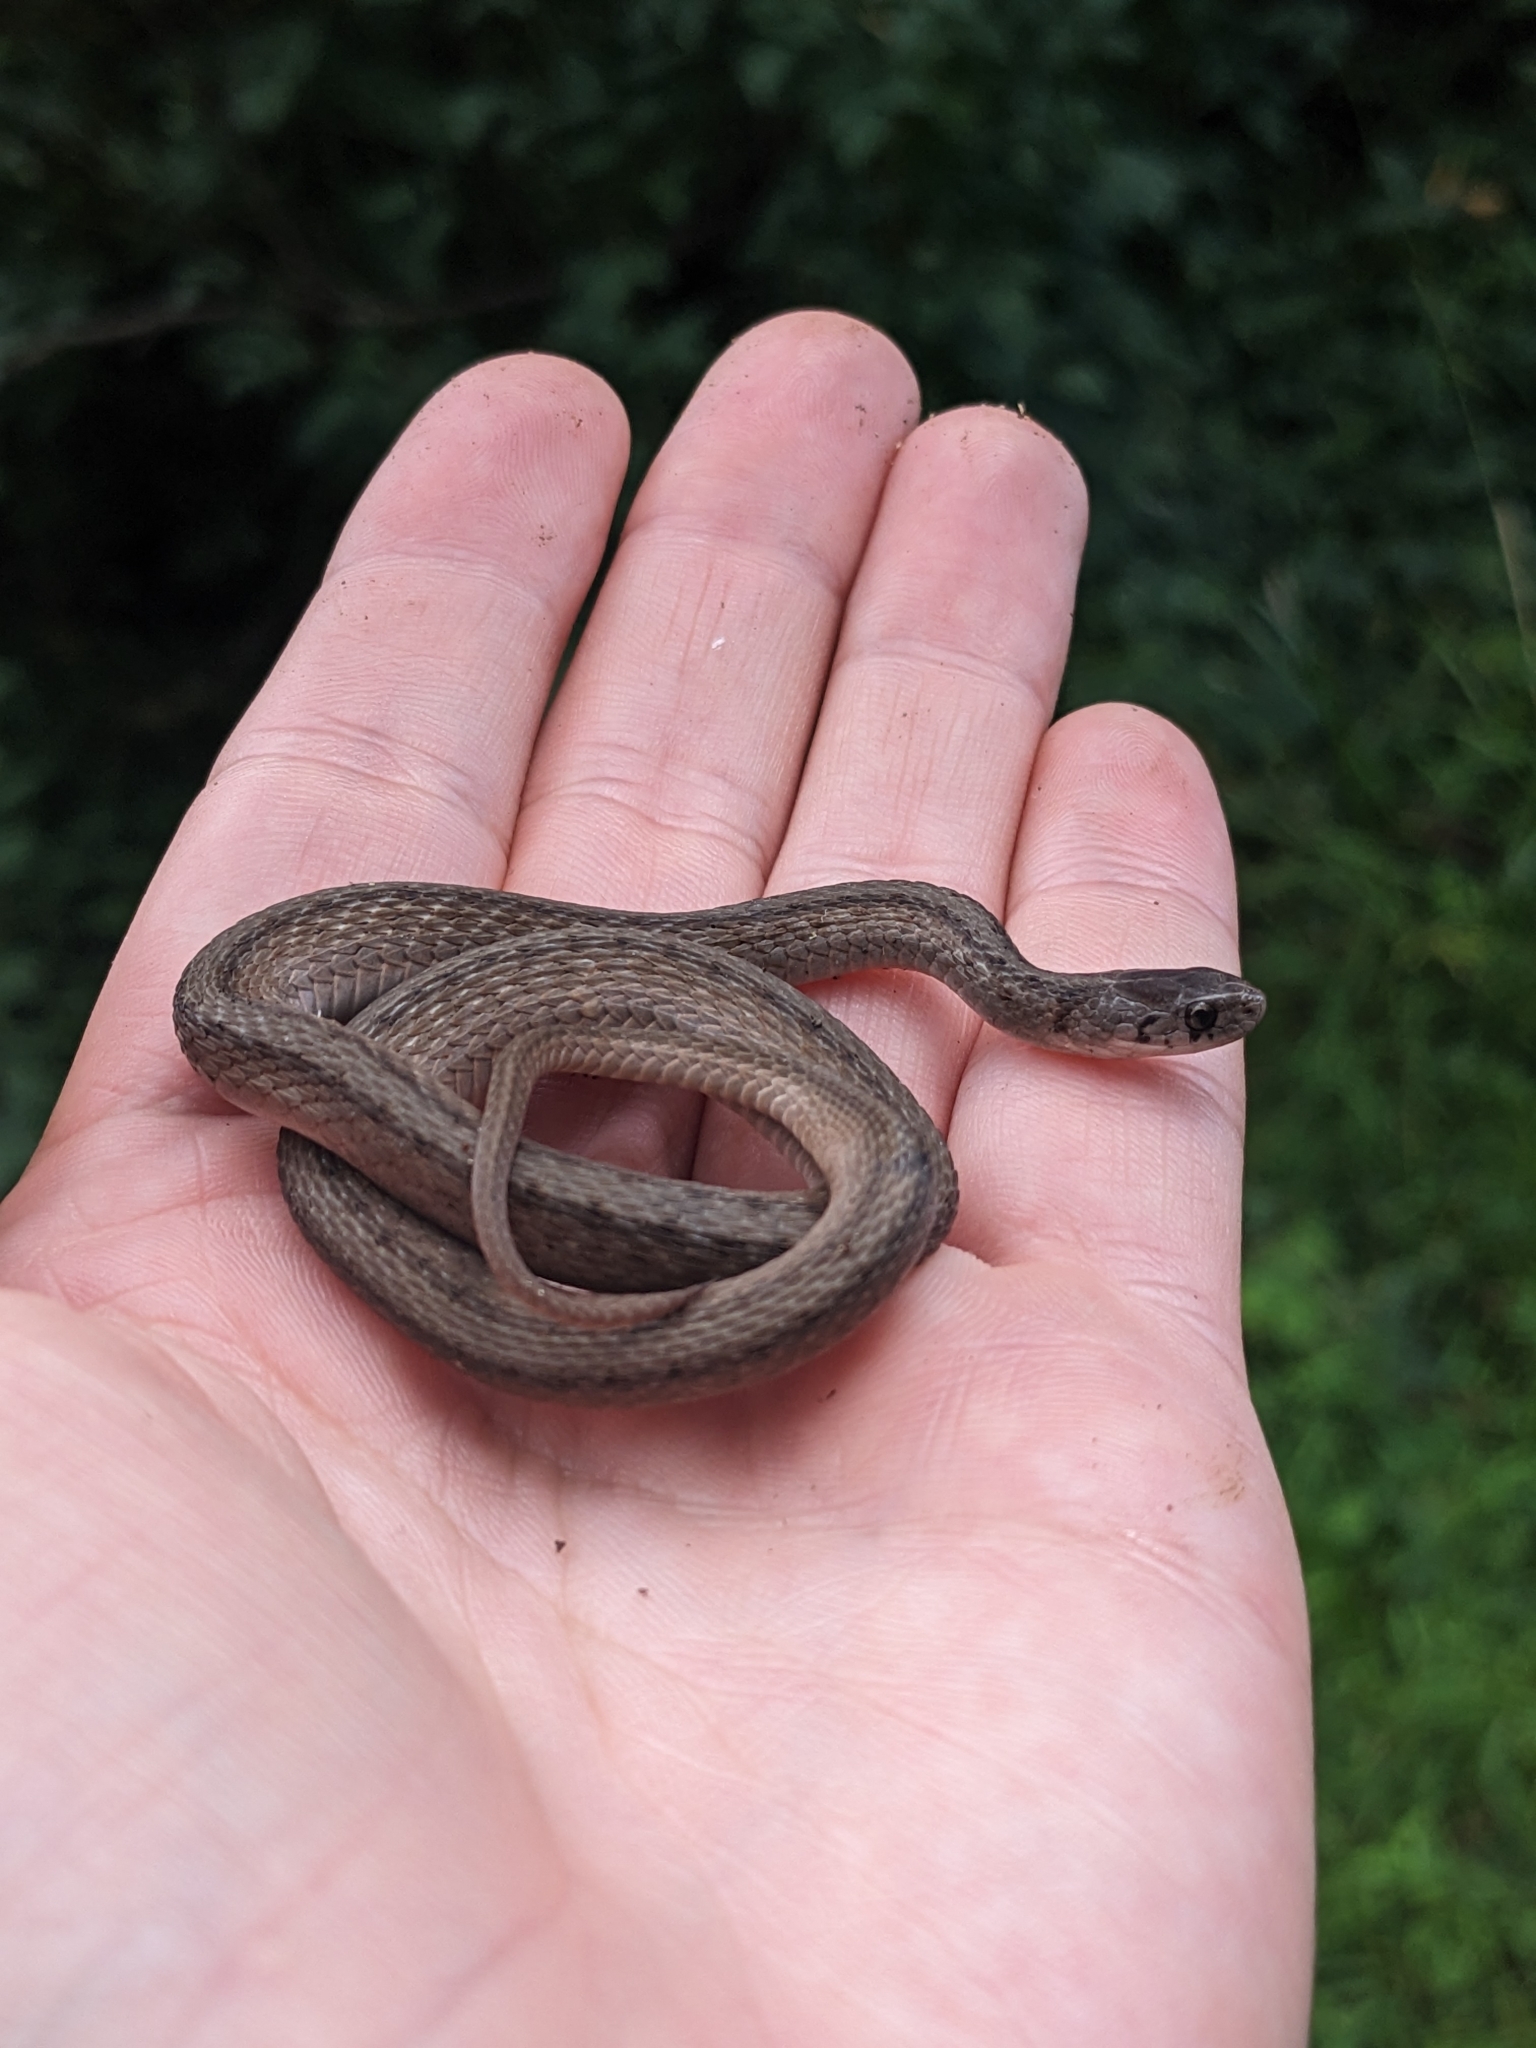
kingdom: Animalia
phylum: Chordata
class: Squamata
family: Colubridae
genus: Storeria
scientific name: Storeria dekayi
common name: (dekay’s) brown snake
